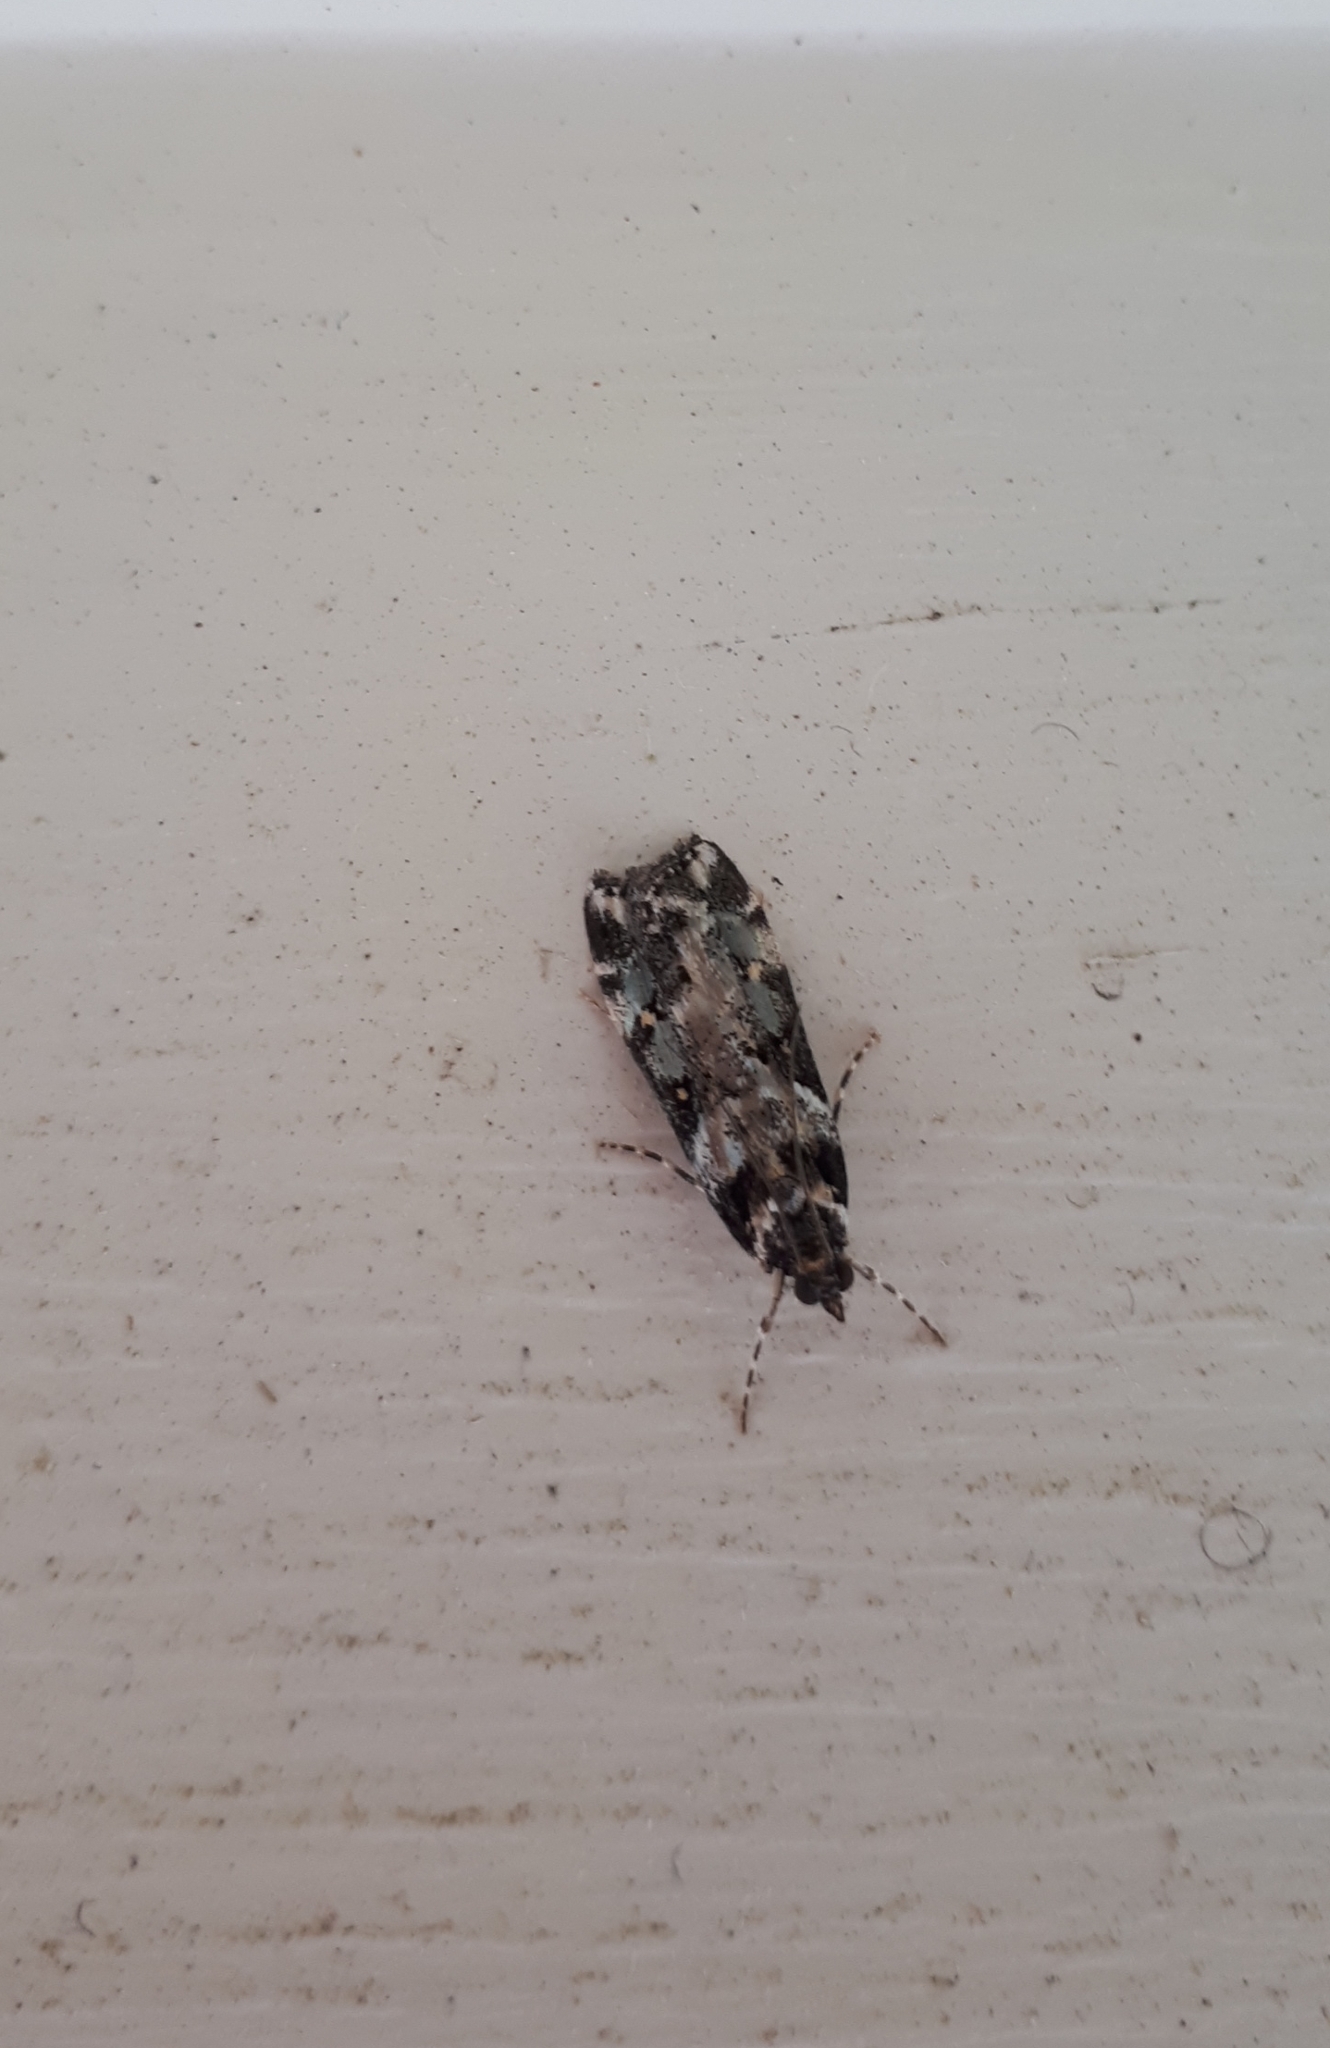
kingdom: Animalia
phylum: Arthropoda
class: Insecta
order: Lepidoptera
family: Crambidae
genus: Eudonia
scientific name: Eudonia diphtheralis
